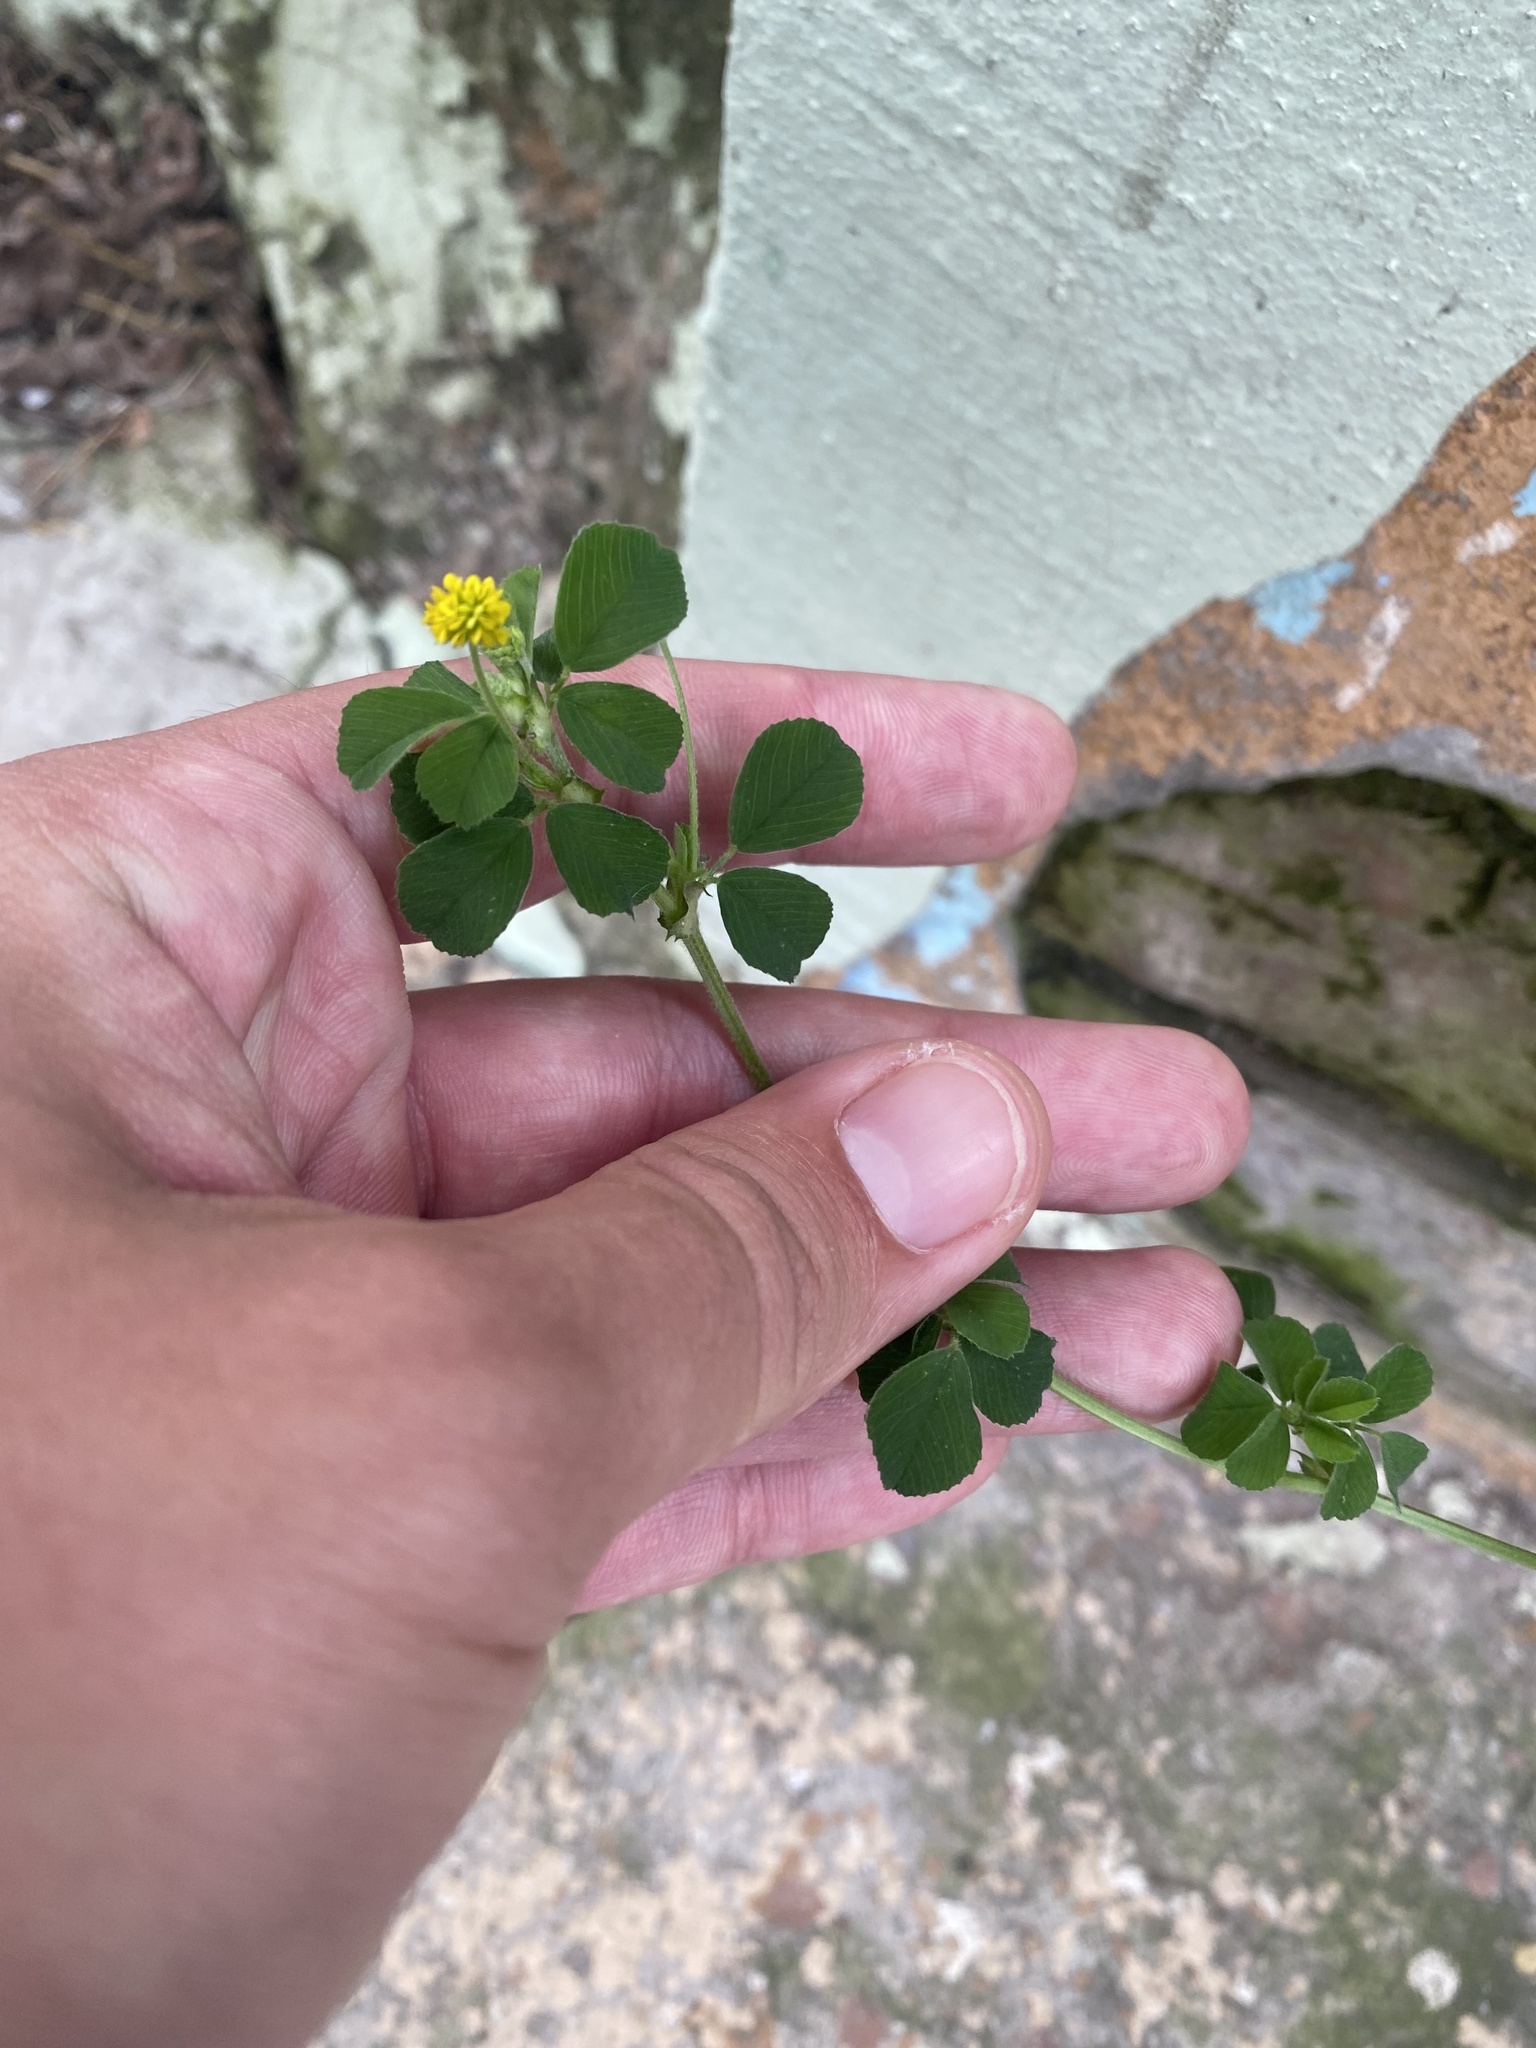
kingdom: Plantae
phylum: Tracheophyta
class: Magnoliopsida
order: Fabales
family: Fabaceae
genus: Medicago
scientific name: Medicago lupulina
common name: Black medick
